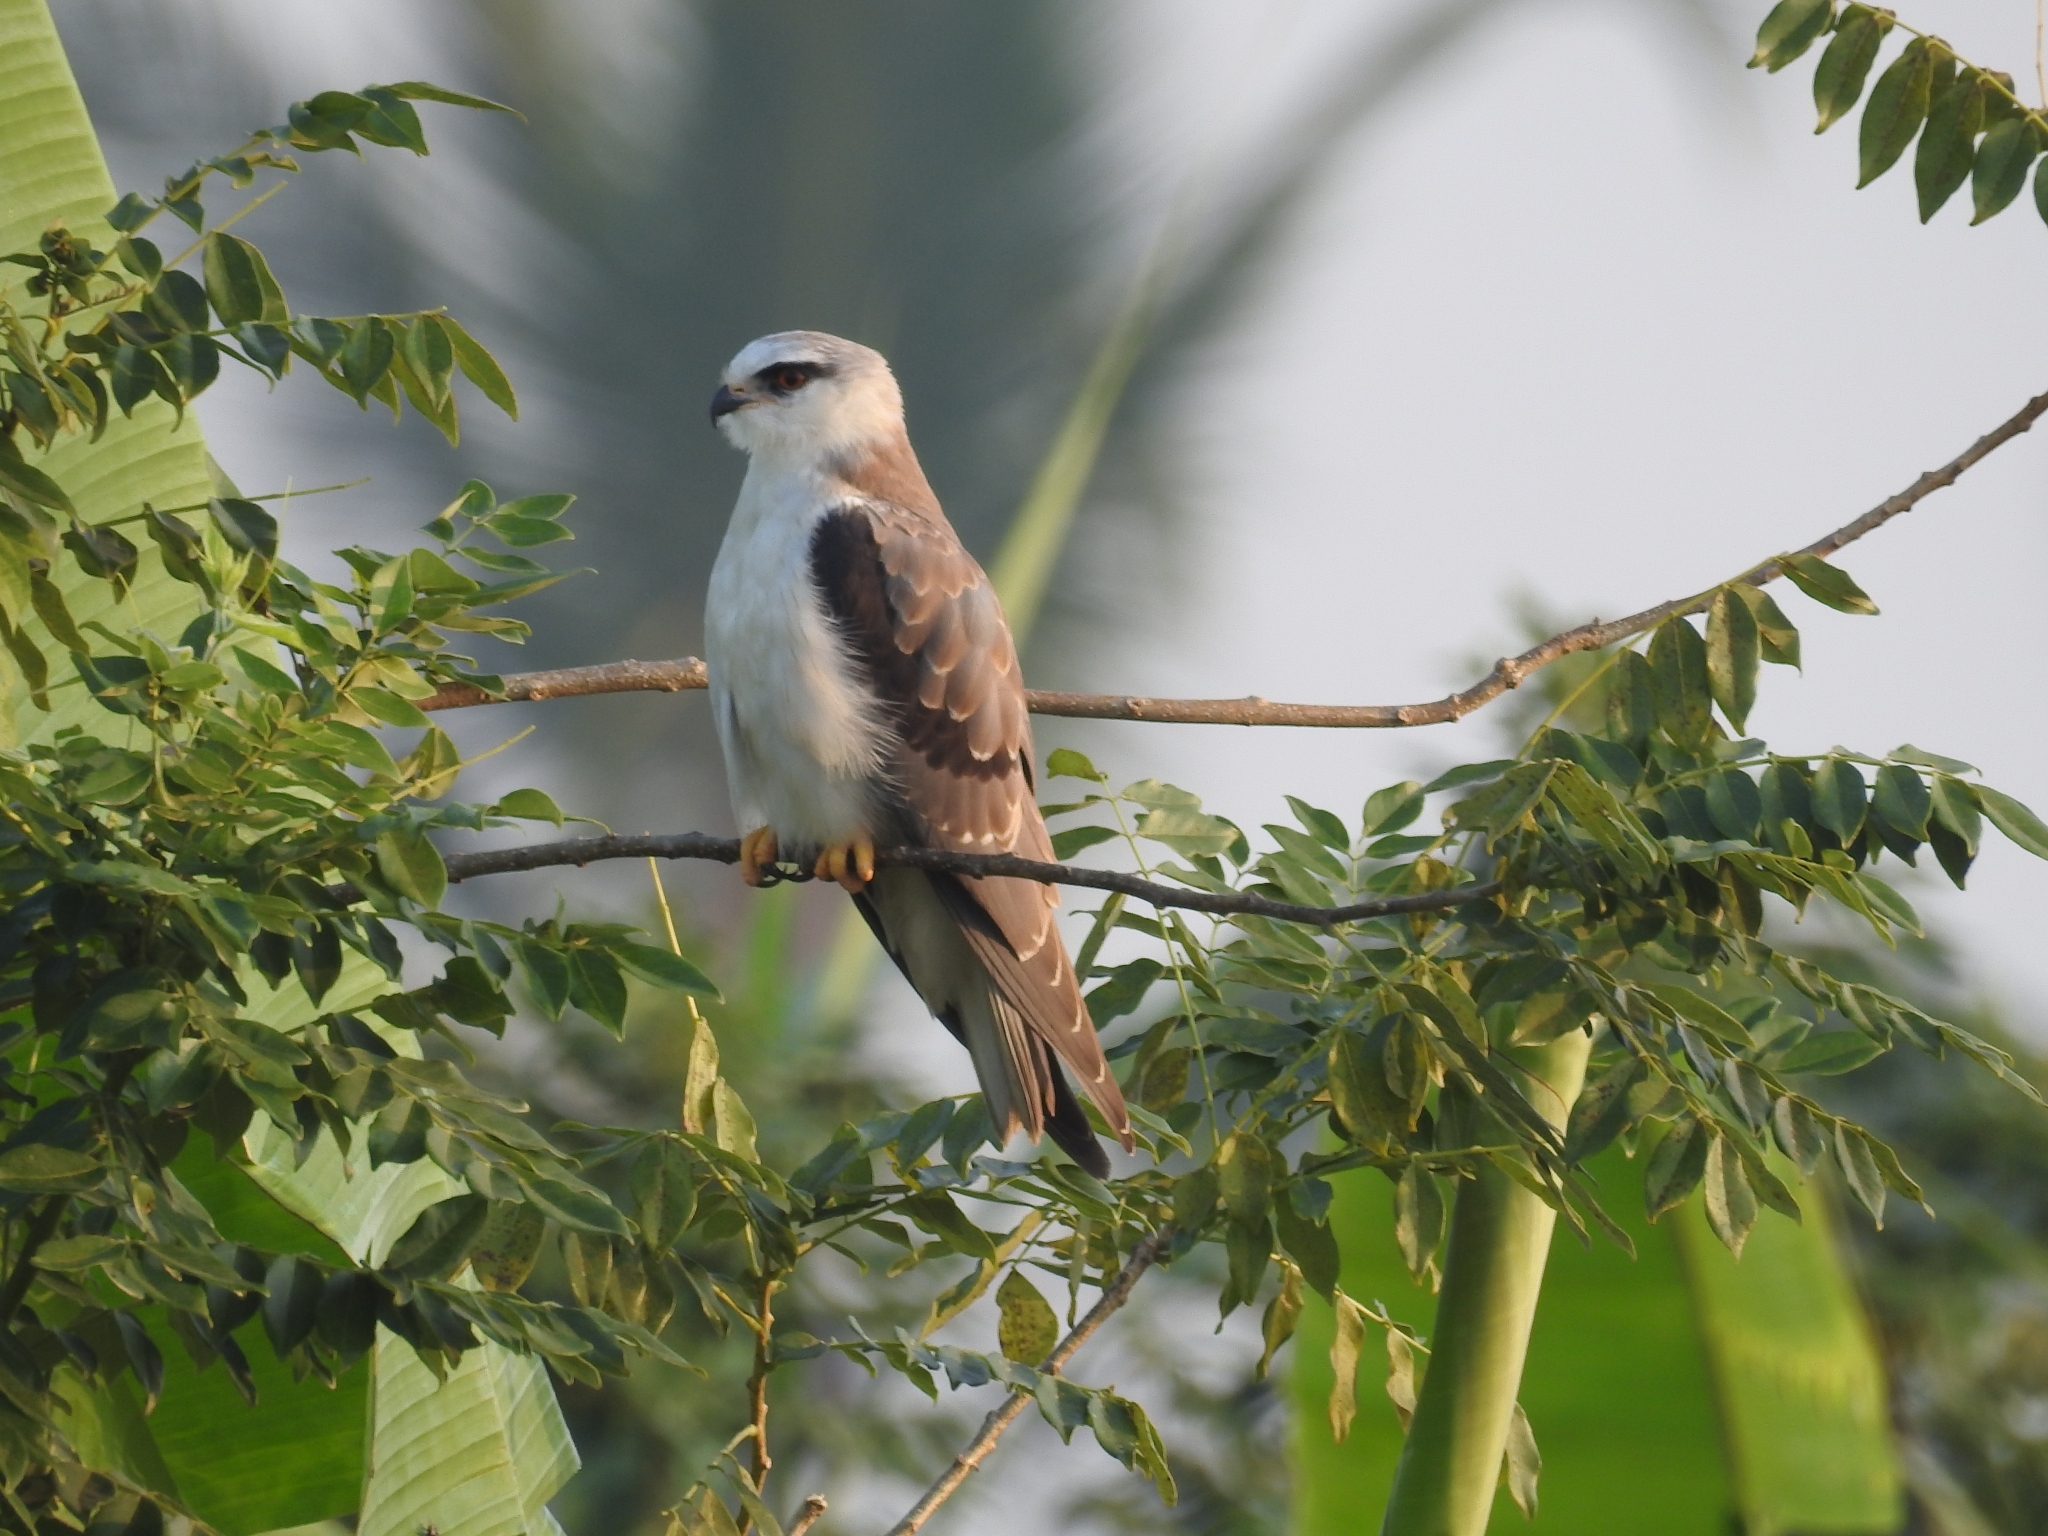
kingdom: Animalia
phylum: Chordata
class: Aves
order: Accipitriformes
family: Accipitridae
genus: Elanus
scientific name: Elanus caeruleus
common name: Black-winged kite
